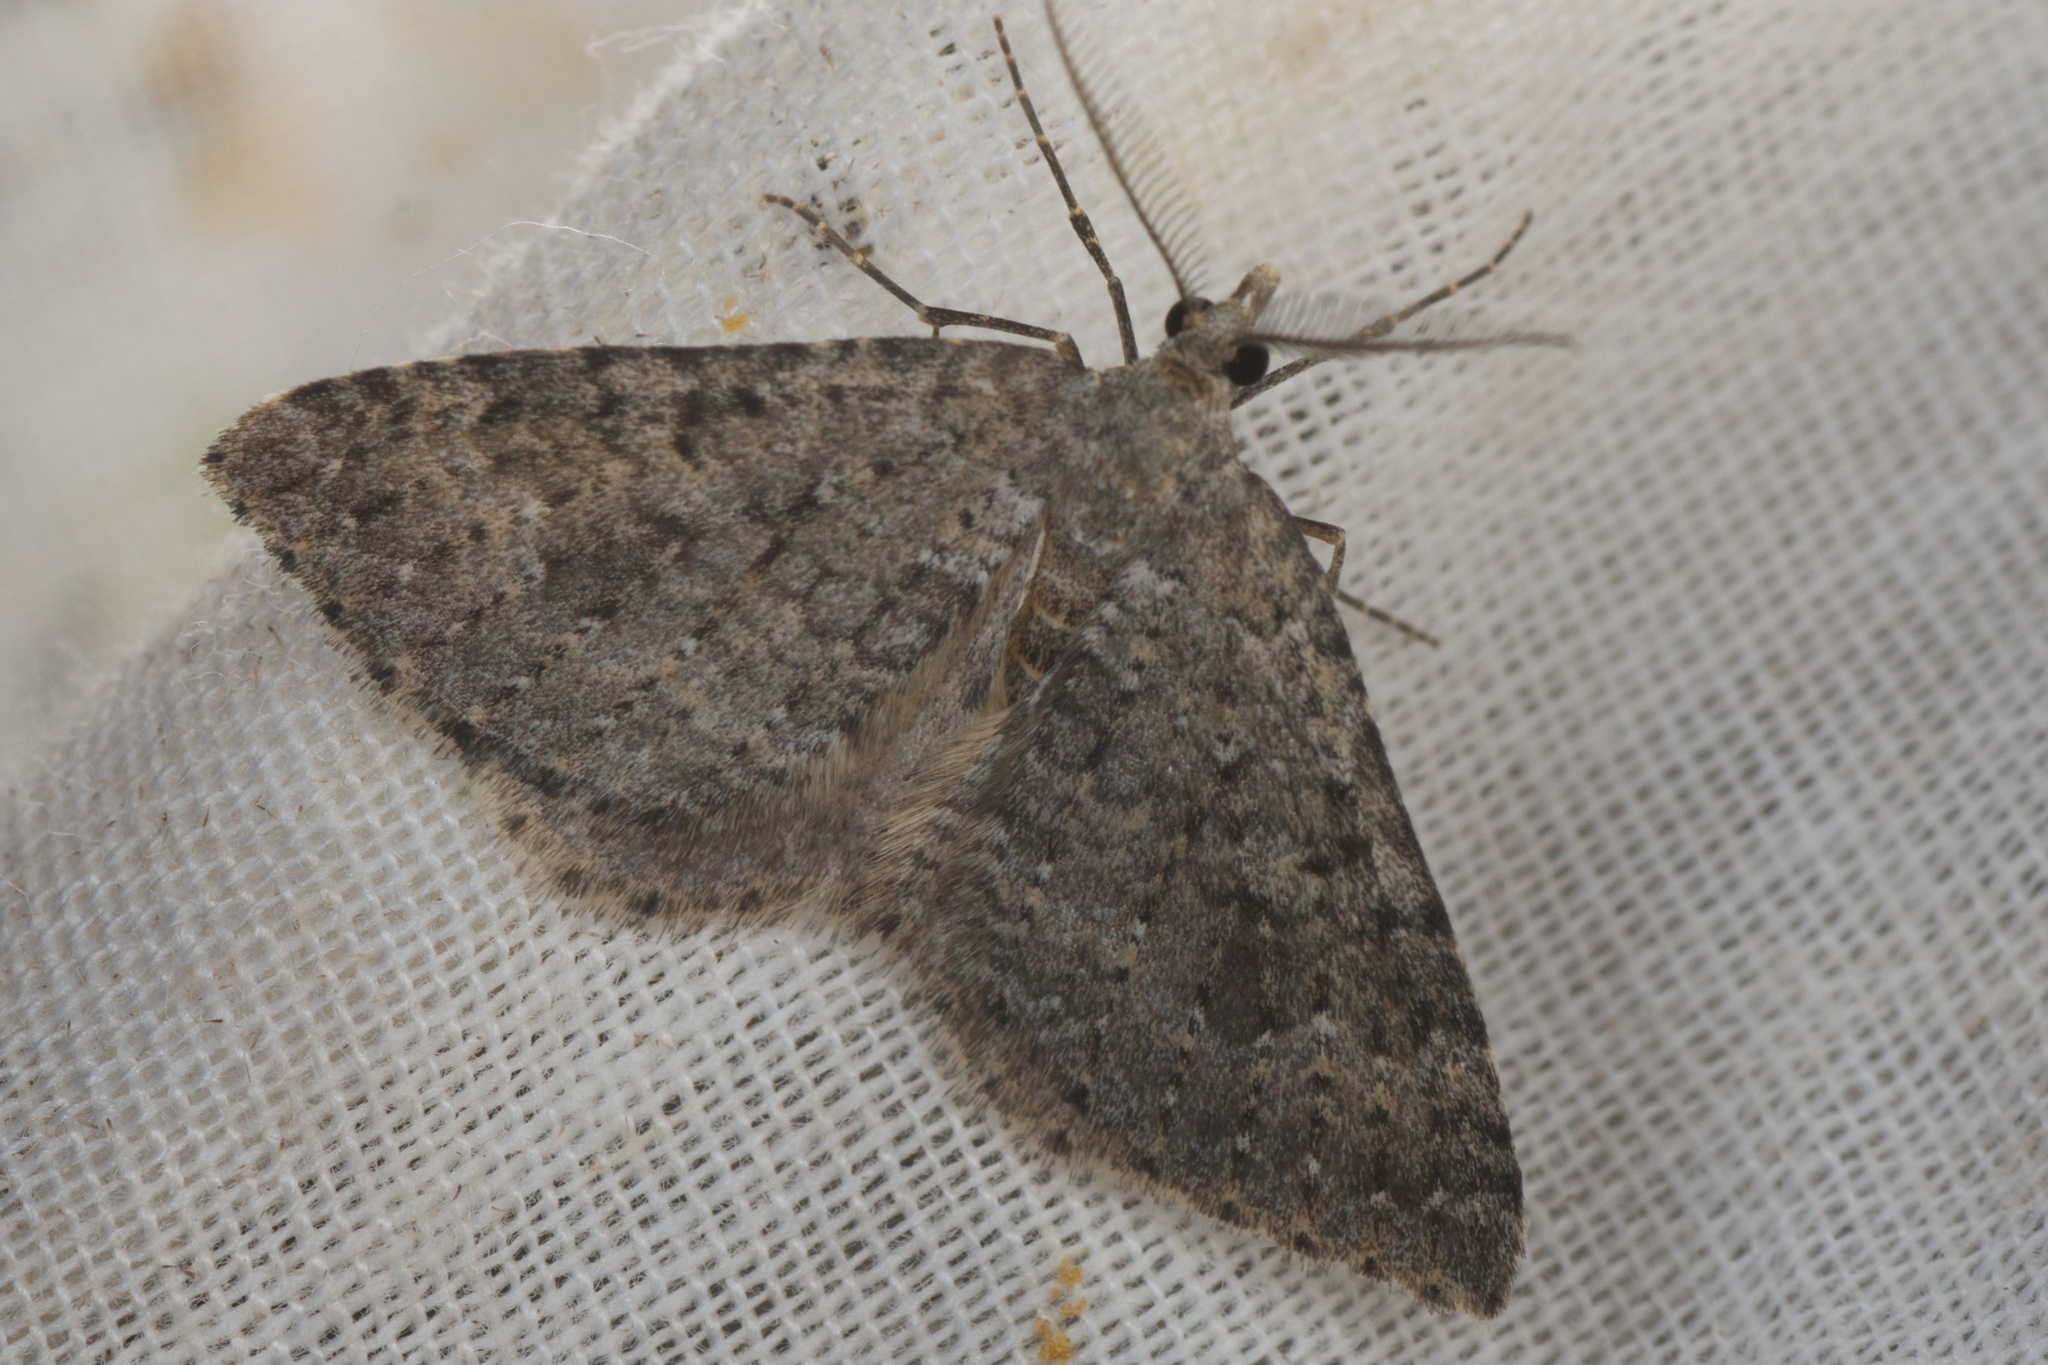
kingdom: Animalia
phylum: Arthropoda
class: Insecta
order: Lepidoptera
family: Geometridae
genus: Helastia
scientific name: Helastia corcularia
